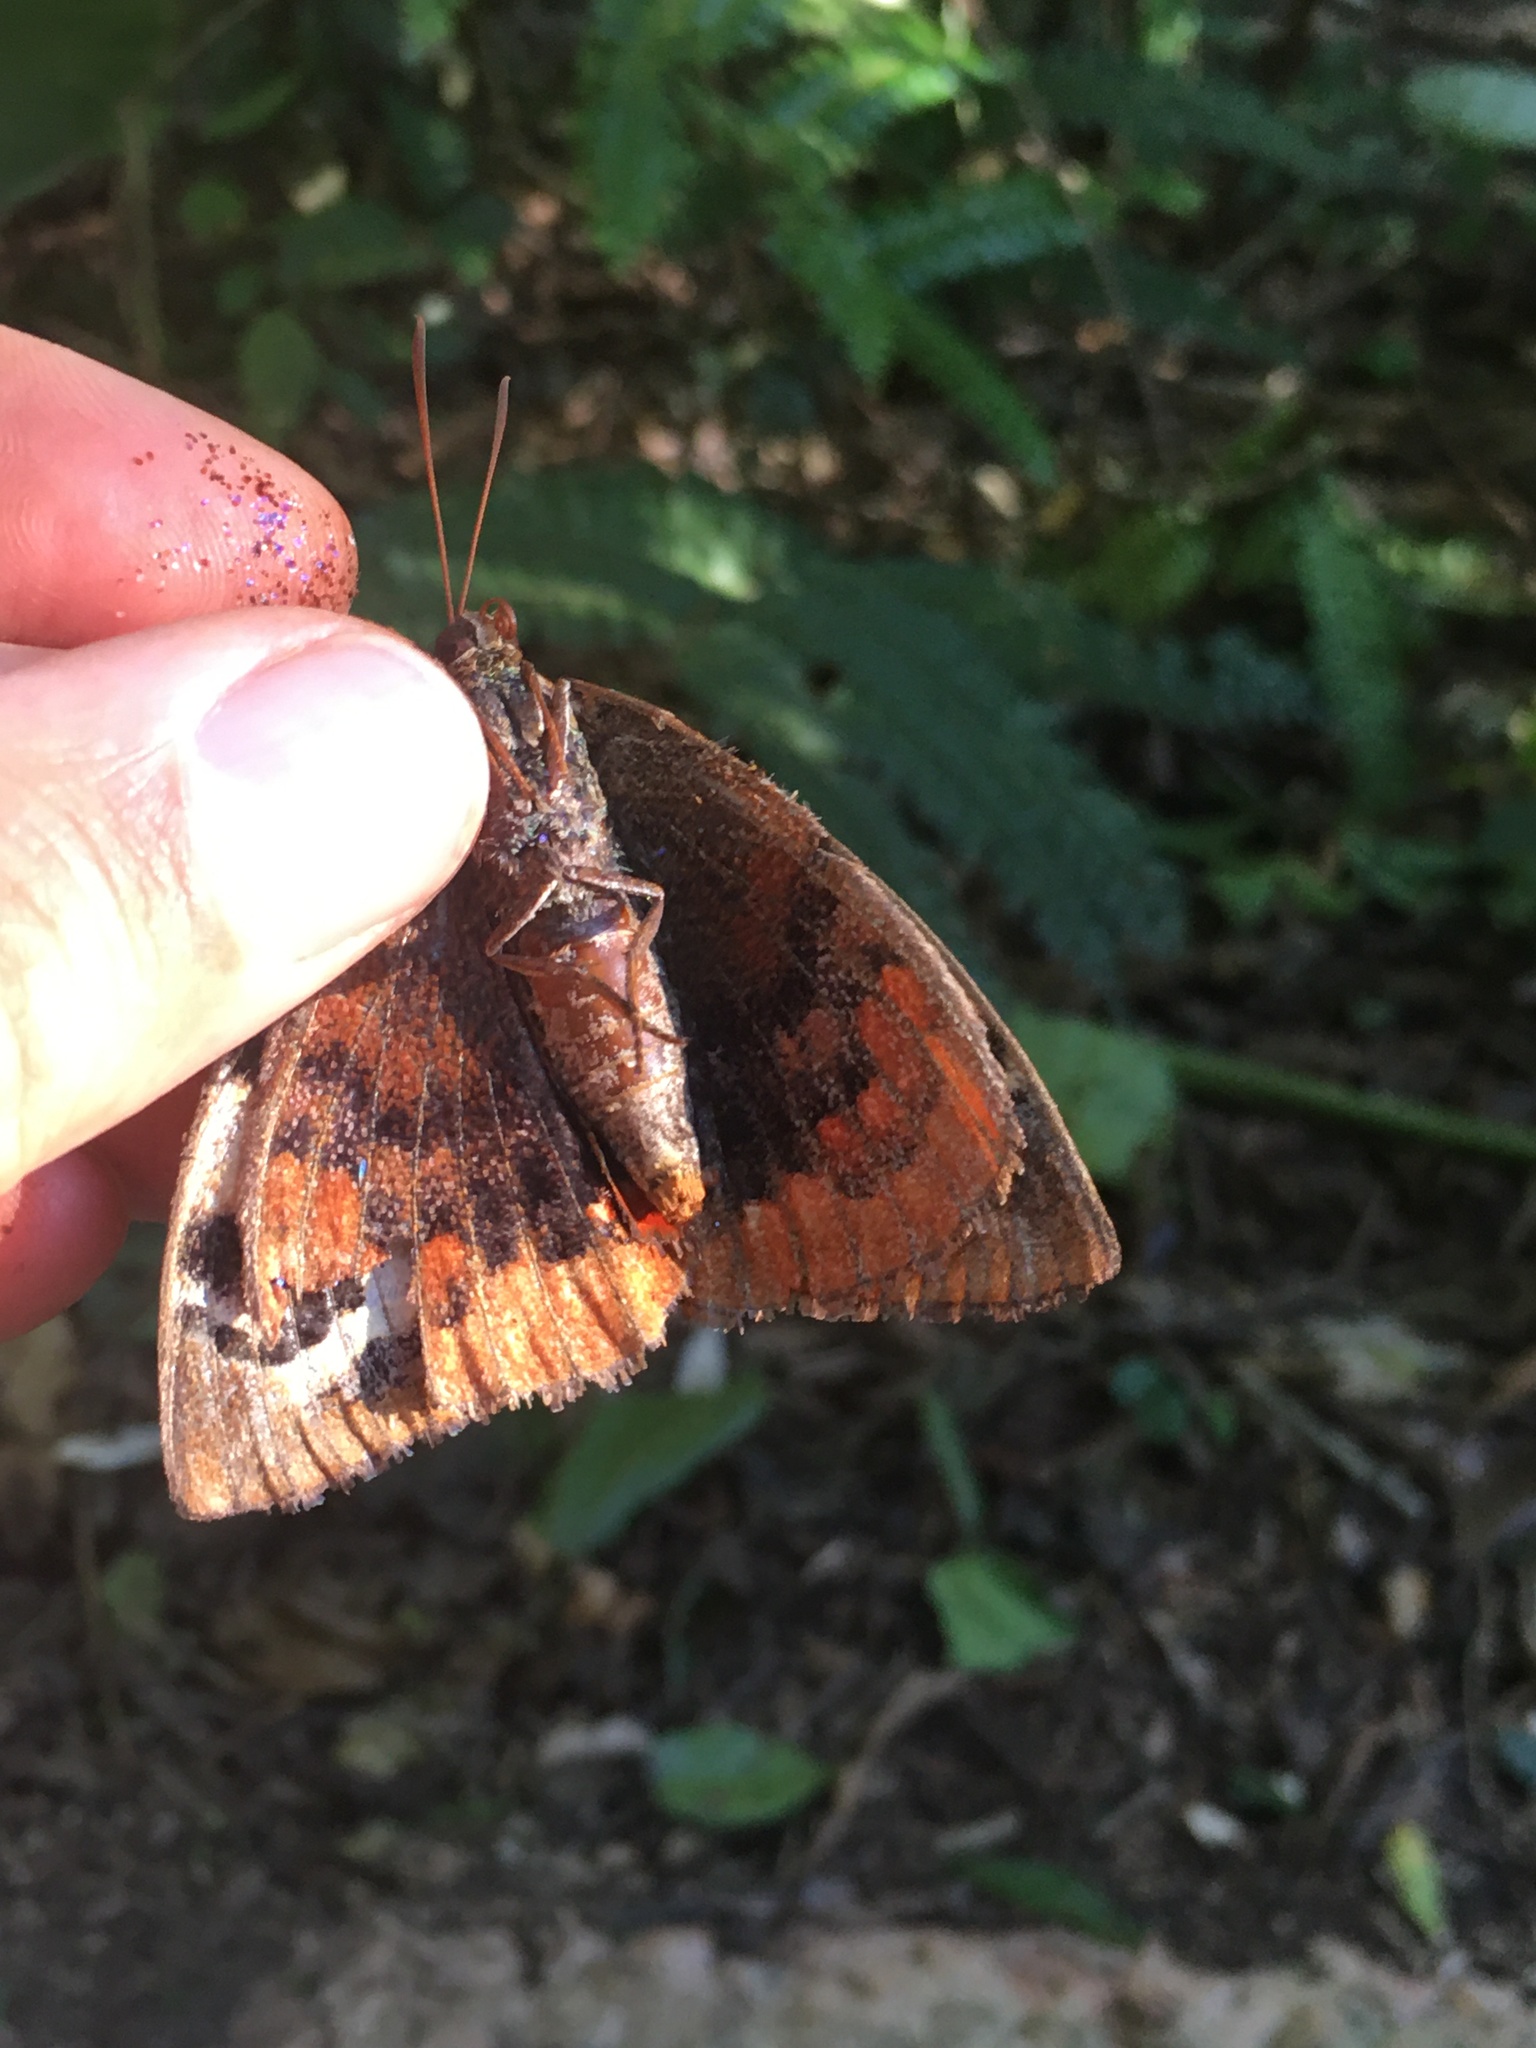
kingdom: Animalia
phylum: Arthropoda
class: Insecta
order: Lepidoptera
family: Castniidae
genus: Synpalamides
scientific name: Synpalamides rubrophalaris
